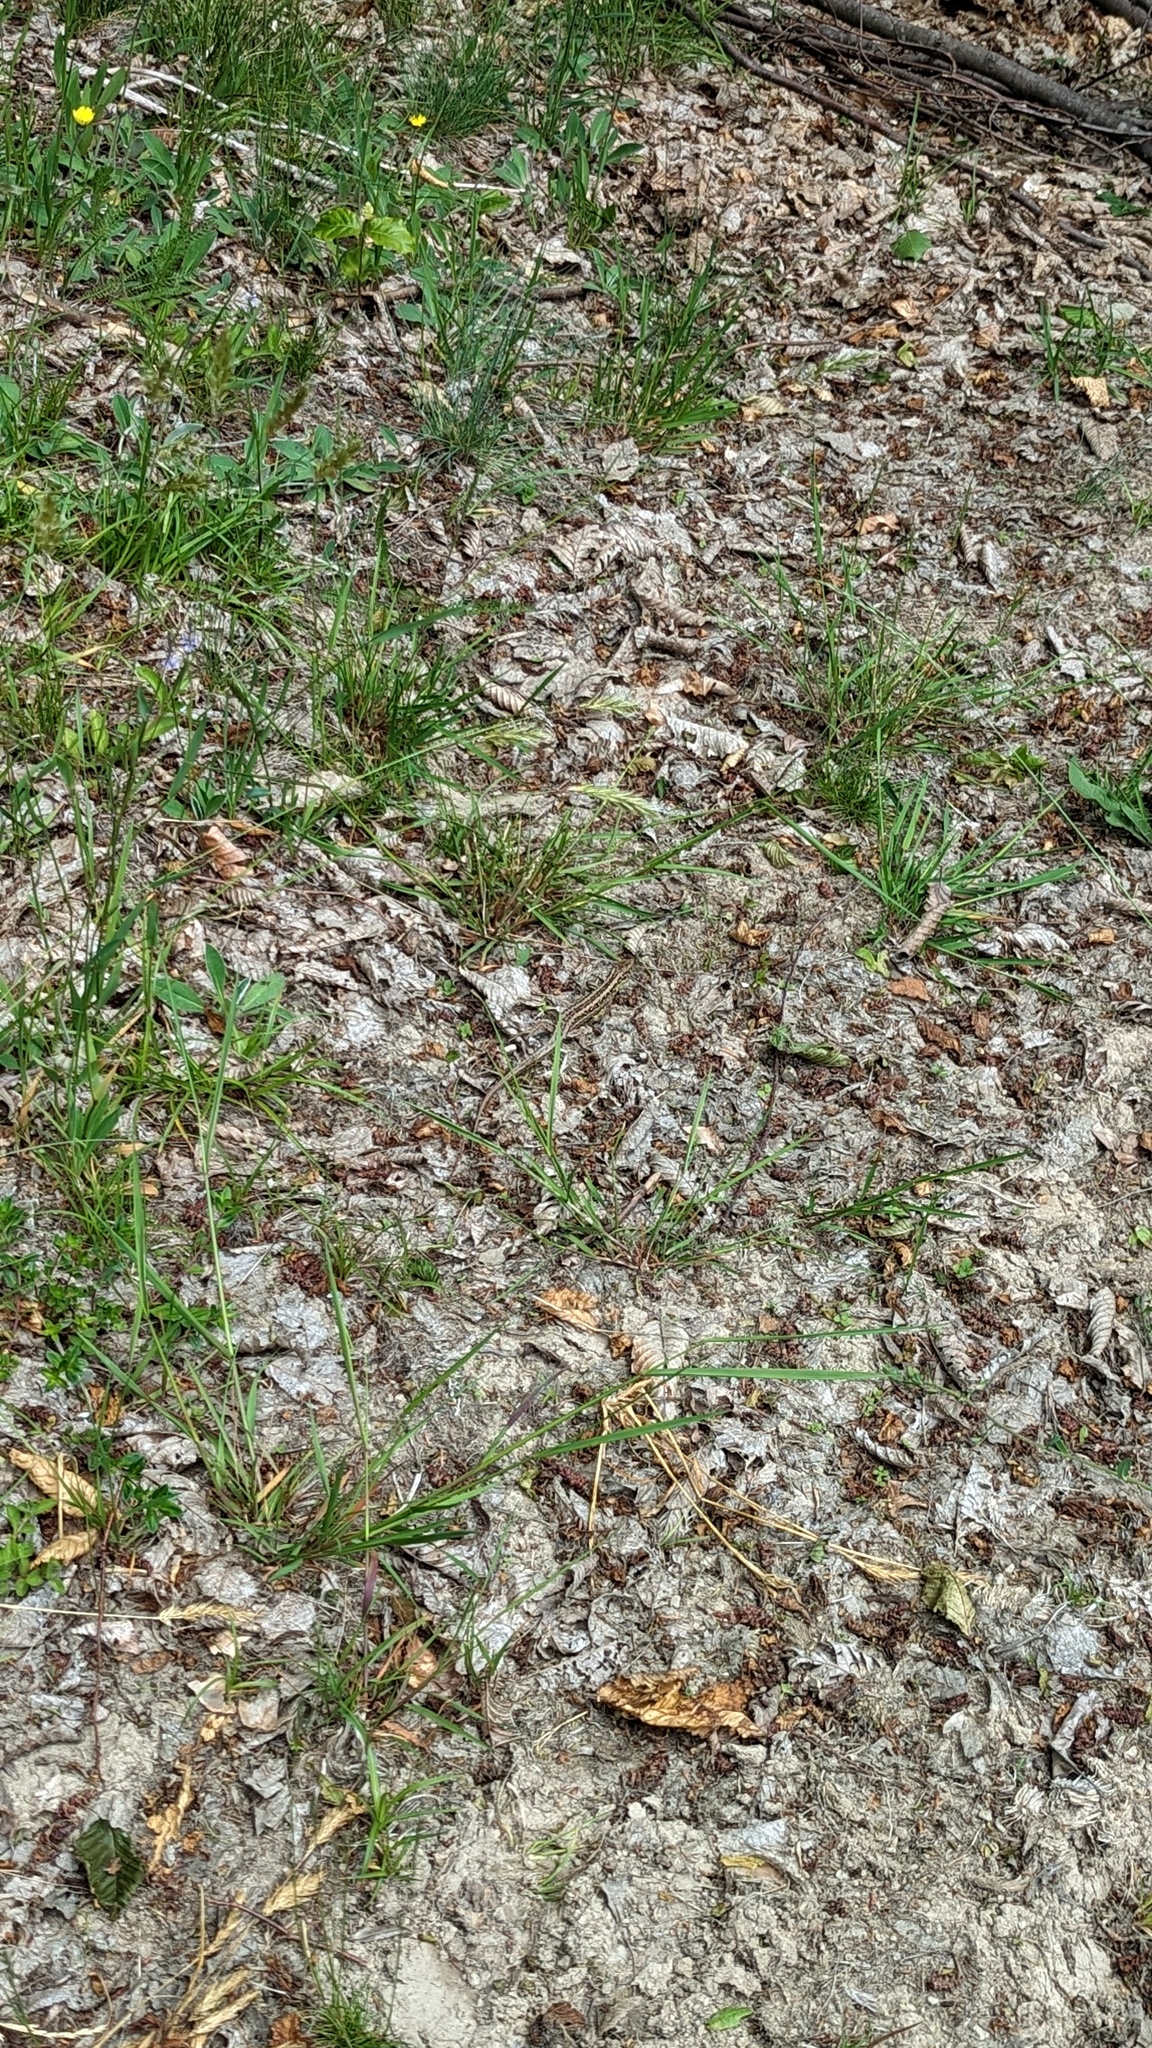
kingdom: Animalia
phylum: Chordata
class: Squamata
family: Lacertidae
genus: Lacerta
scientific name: Lacerta agilis
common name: Sand lizard
